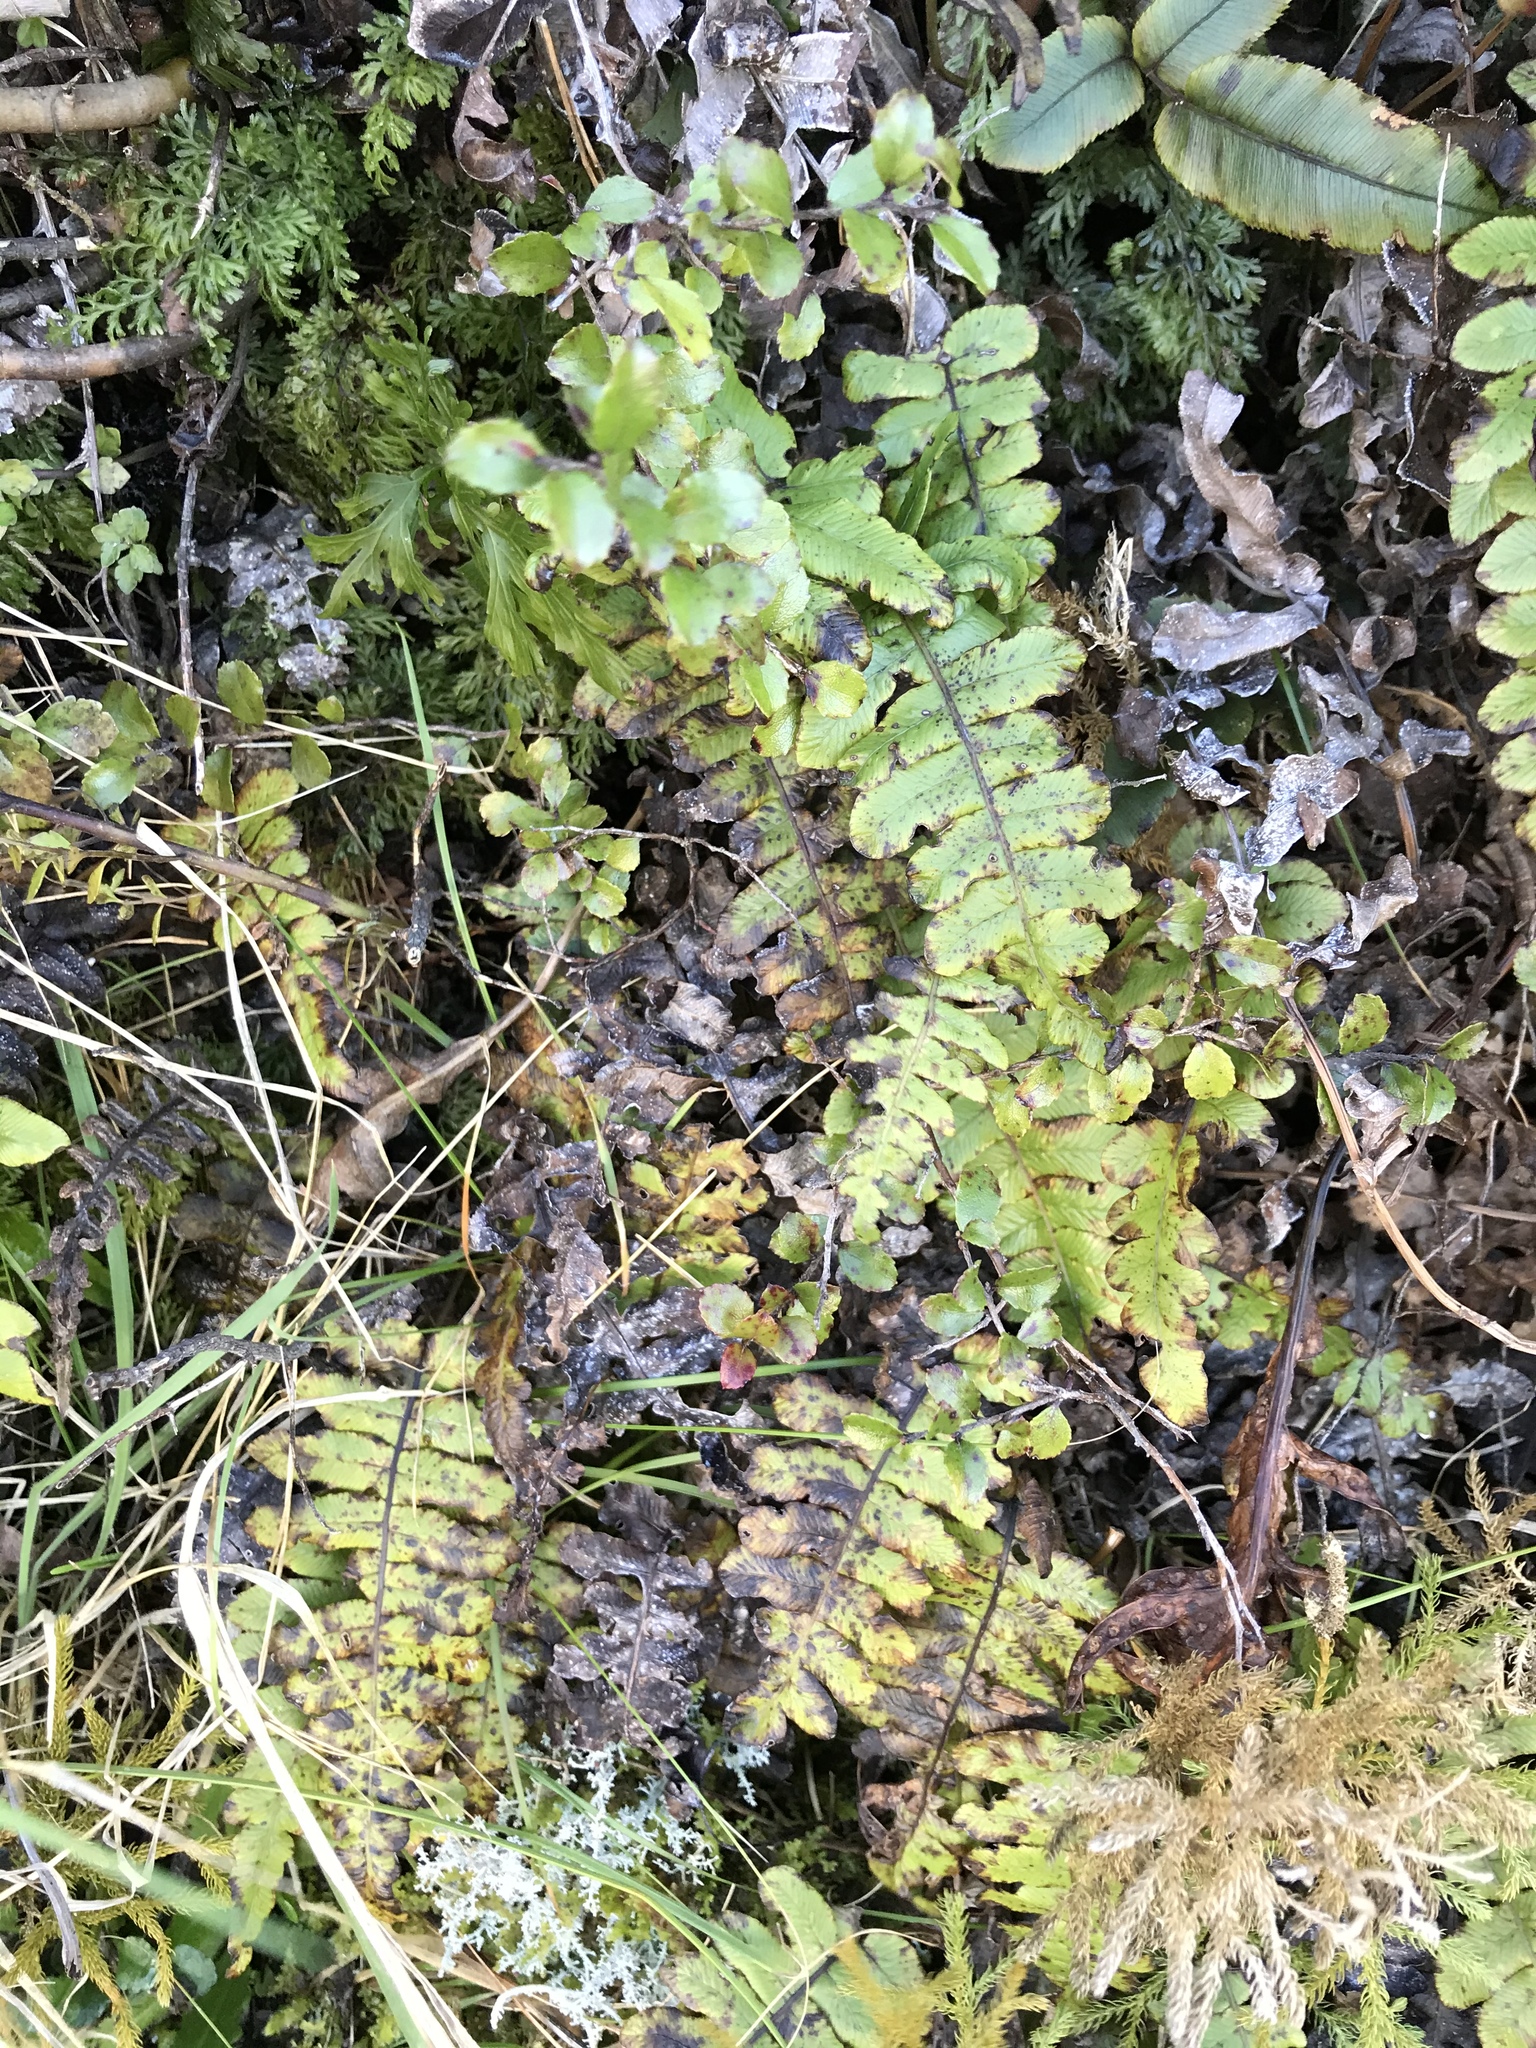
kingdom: Plantae
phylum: Tracheophyta
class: Polypodiopsida
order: Polypodiales
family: Blechnaceae
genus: Cranfillia
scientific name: Cranfillia deltoides
